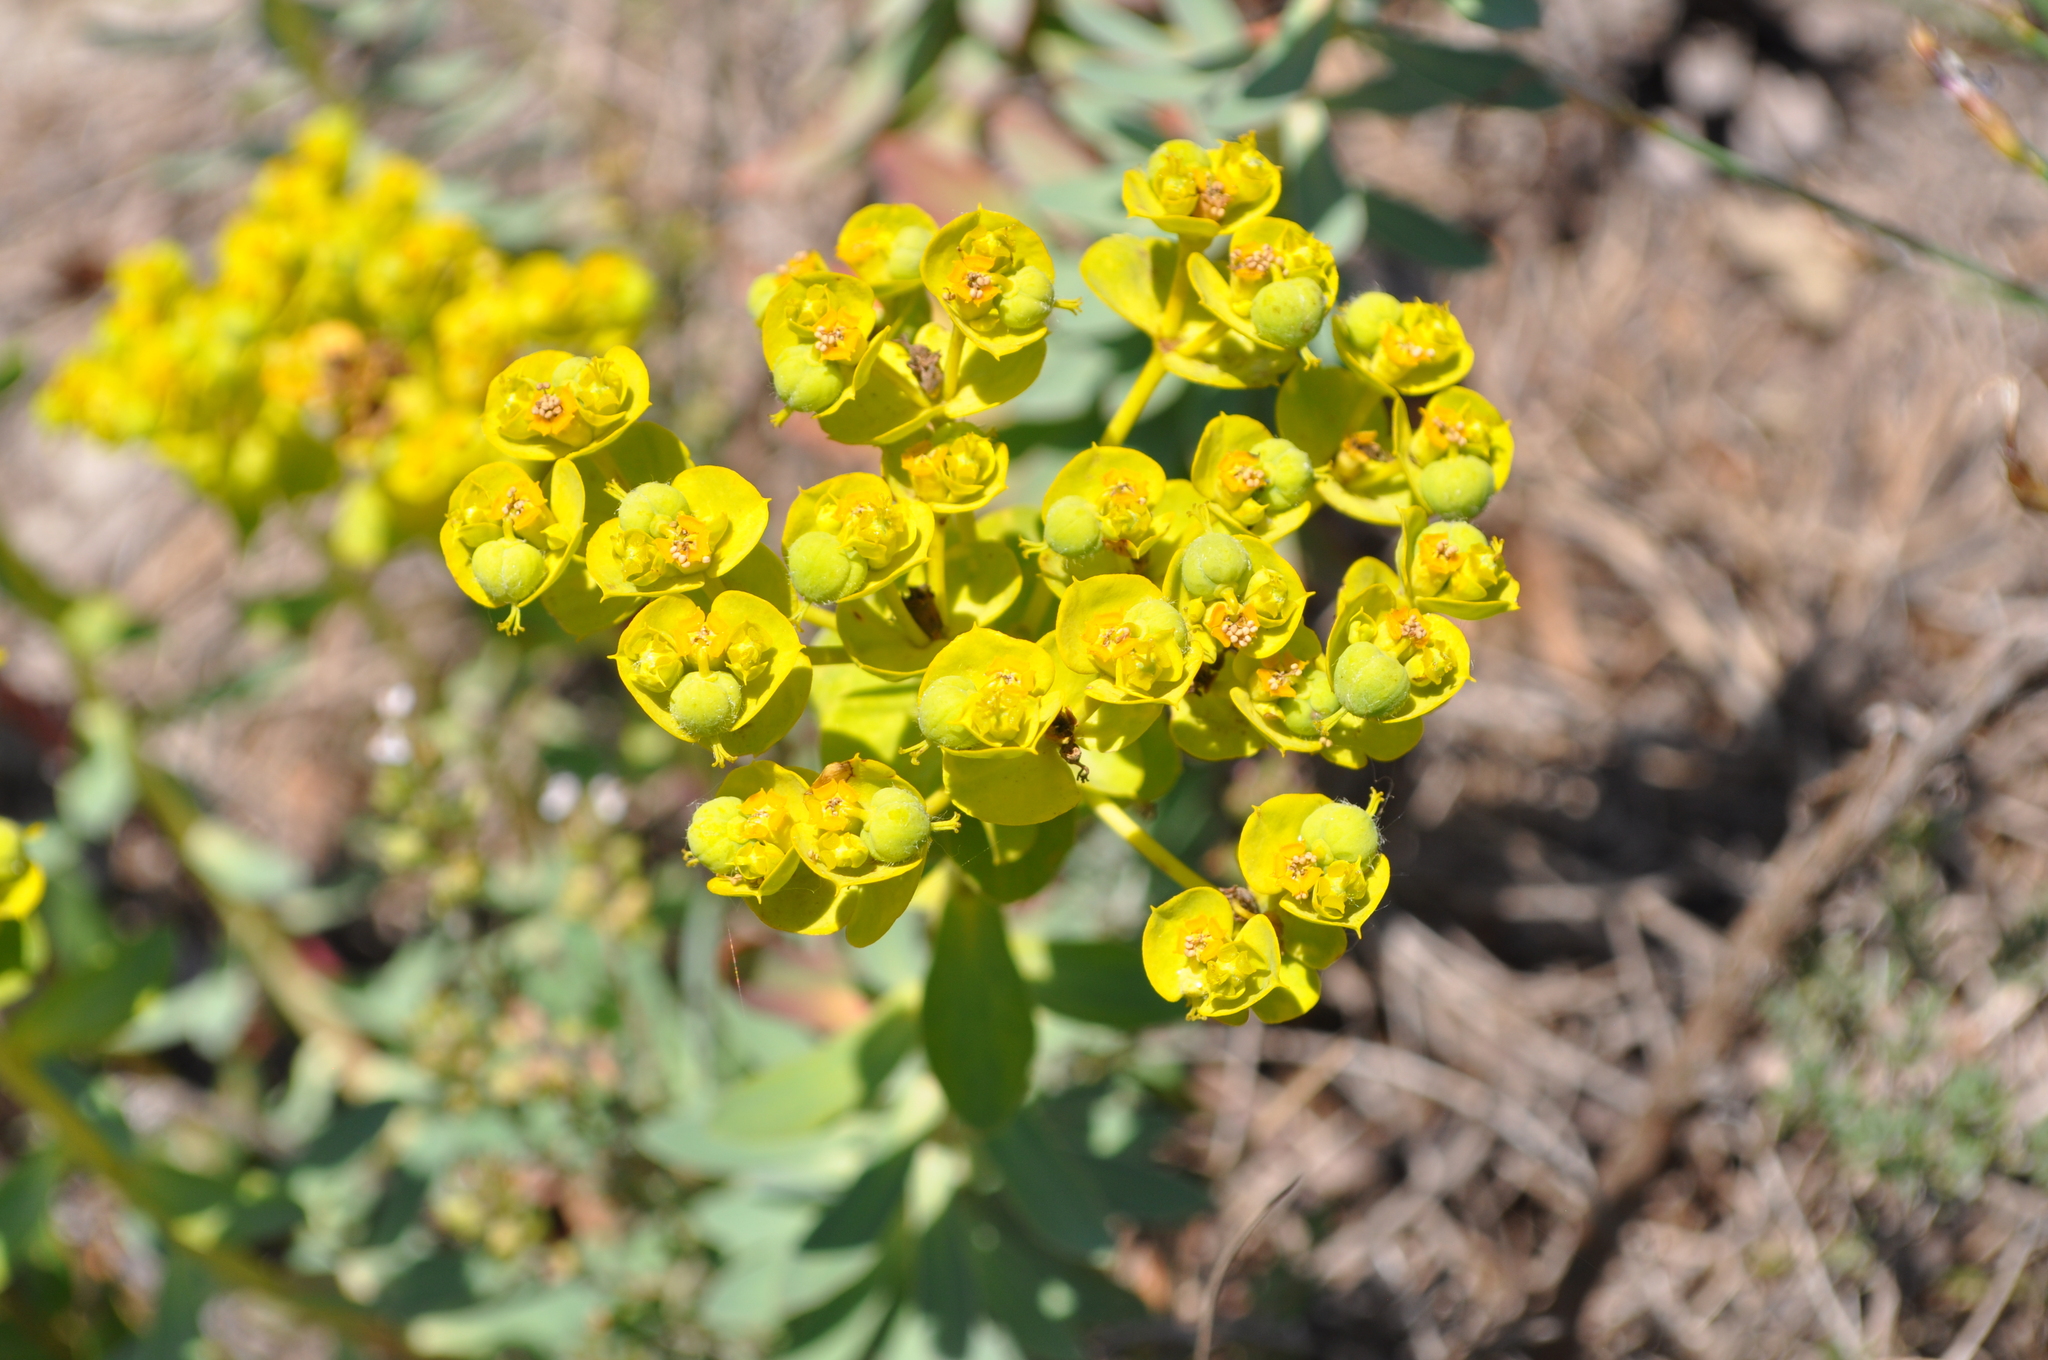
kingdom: Plantae
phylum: Tracheophyta
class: Magnoliopsida
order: Malpighiales
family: Euphorbiaceae
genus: Euphorbia
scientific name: Euphorbia nicaeensis
